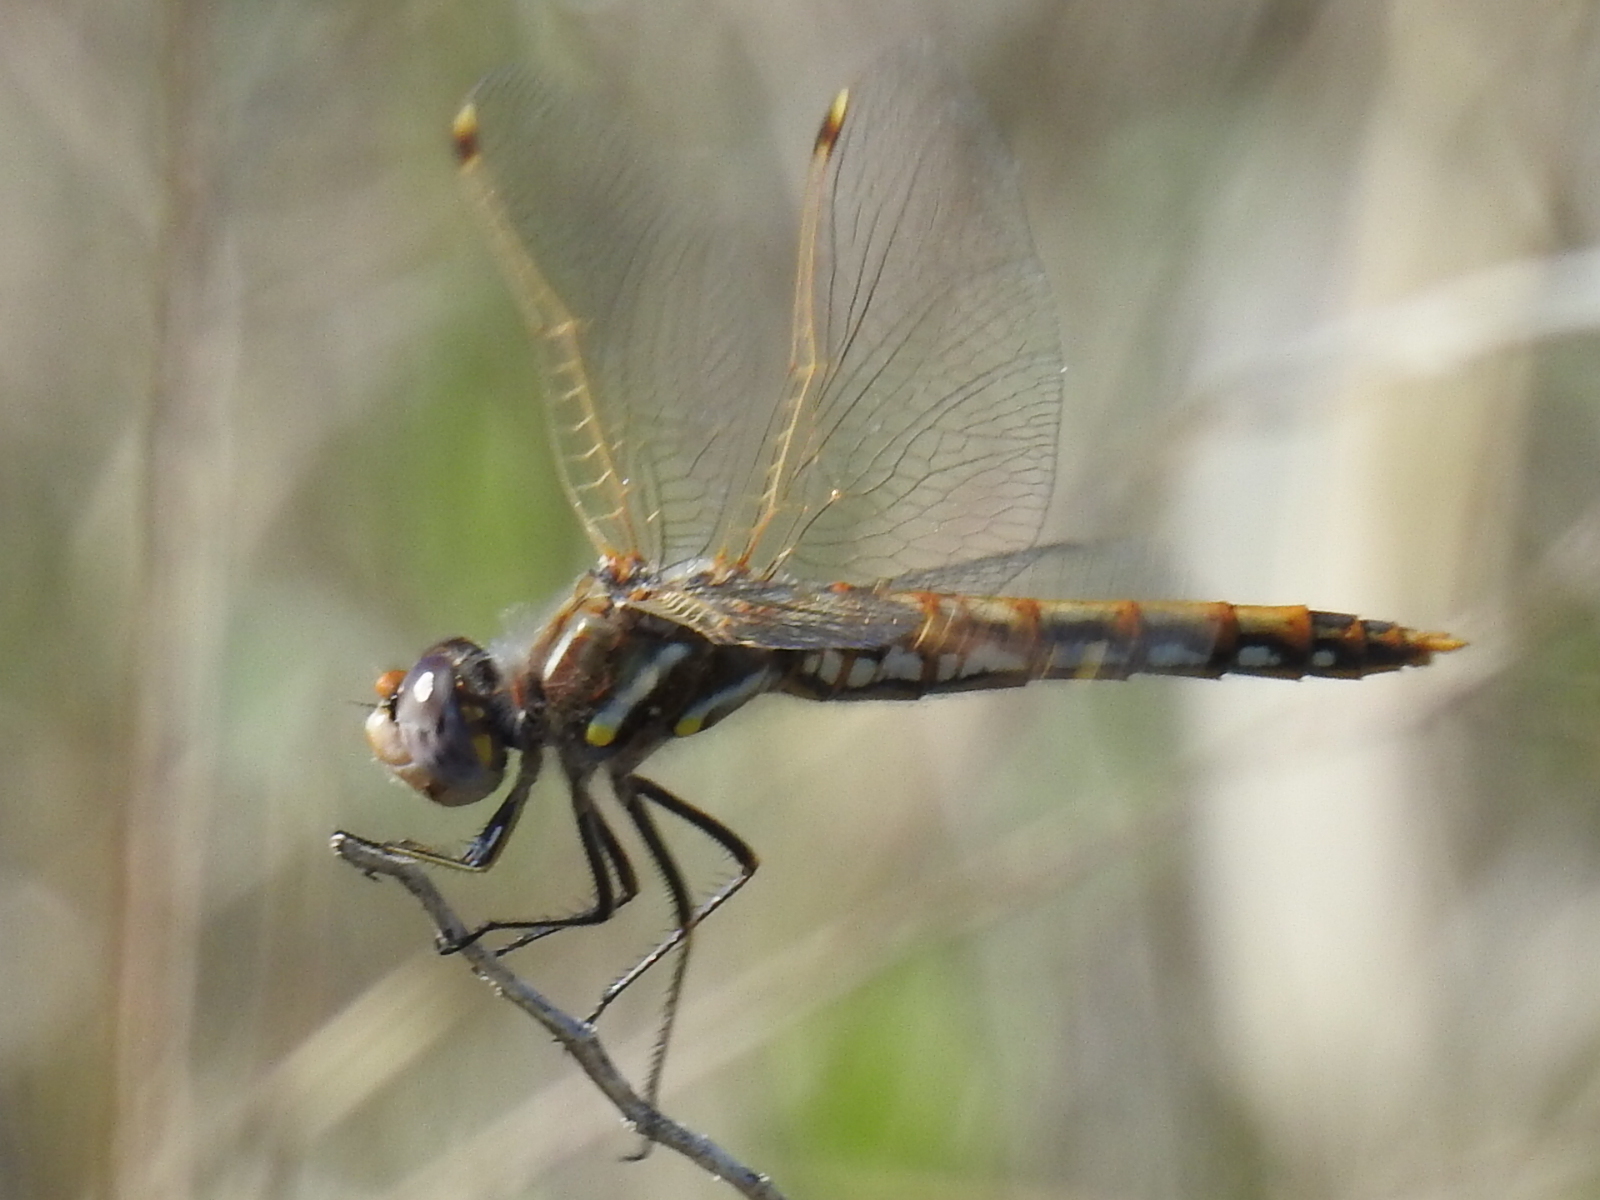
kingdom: Animalia
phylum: Arthropoda
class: Insecta
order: Odonata
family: Libellulidae
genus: Sympetrum
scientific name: Sympetrum corruptum
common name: Variegated meadowhawk
